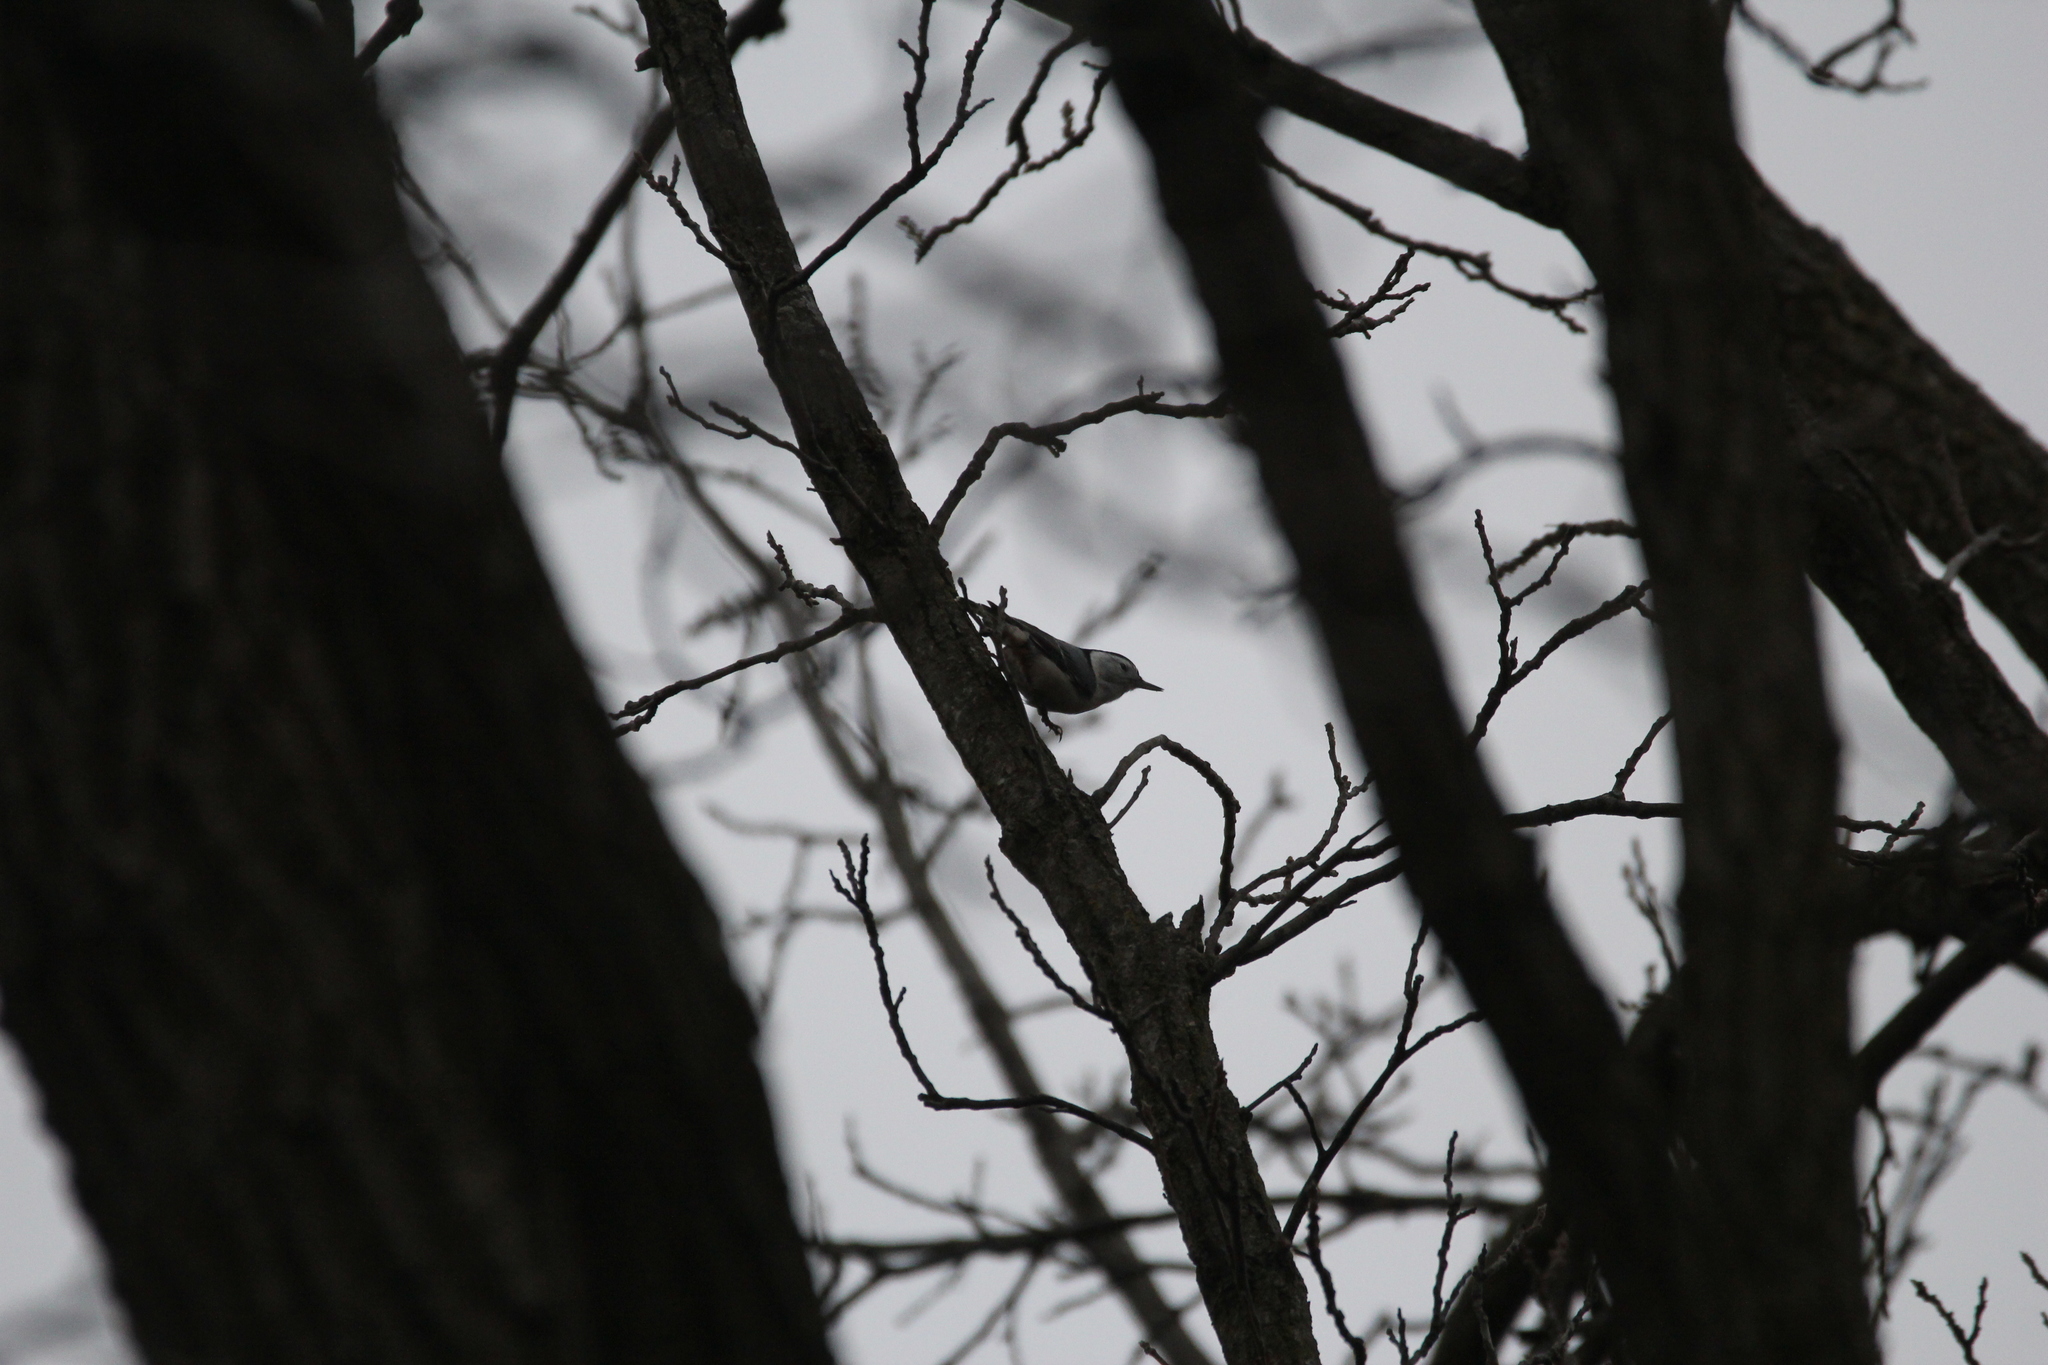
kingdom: Animalia
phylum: Chordata
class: Aves
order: Passeriformes
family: Sittidae
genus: Sitta
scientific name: Sitta carolinensis
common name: White-breasted nuthatch
